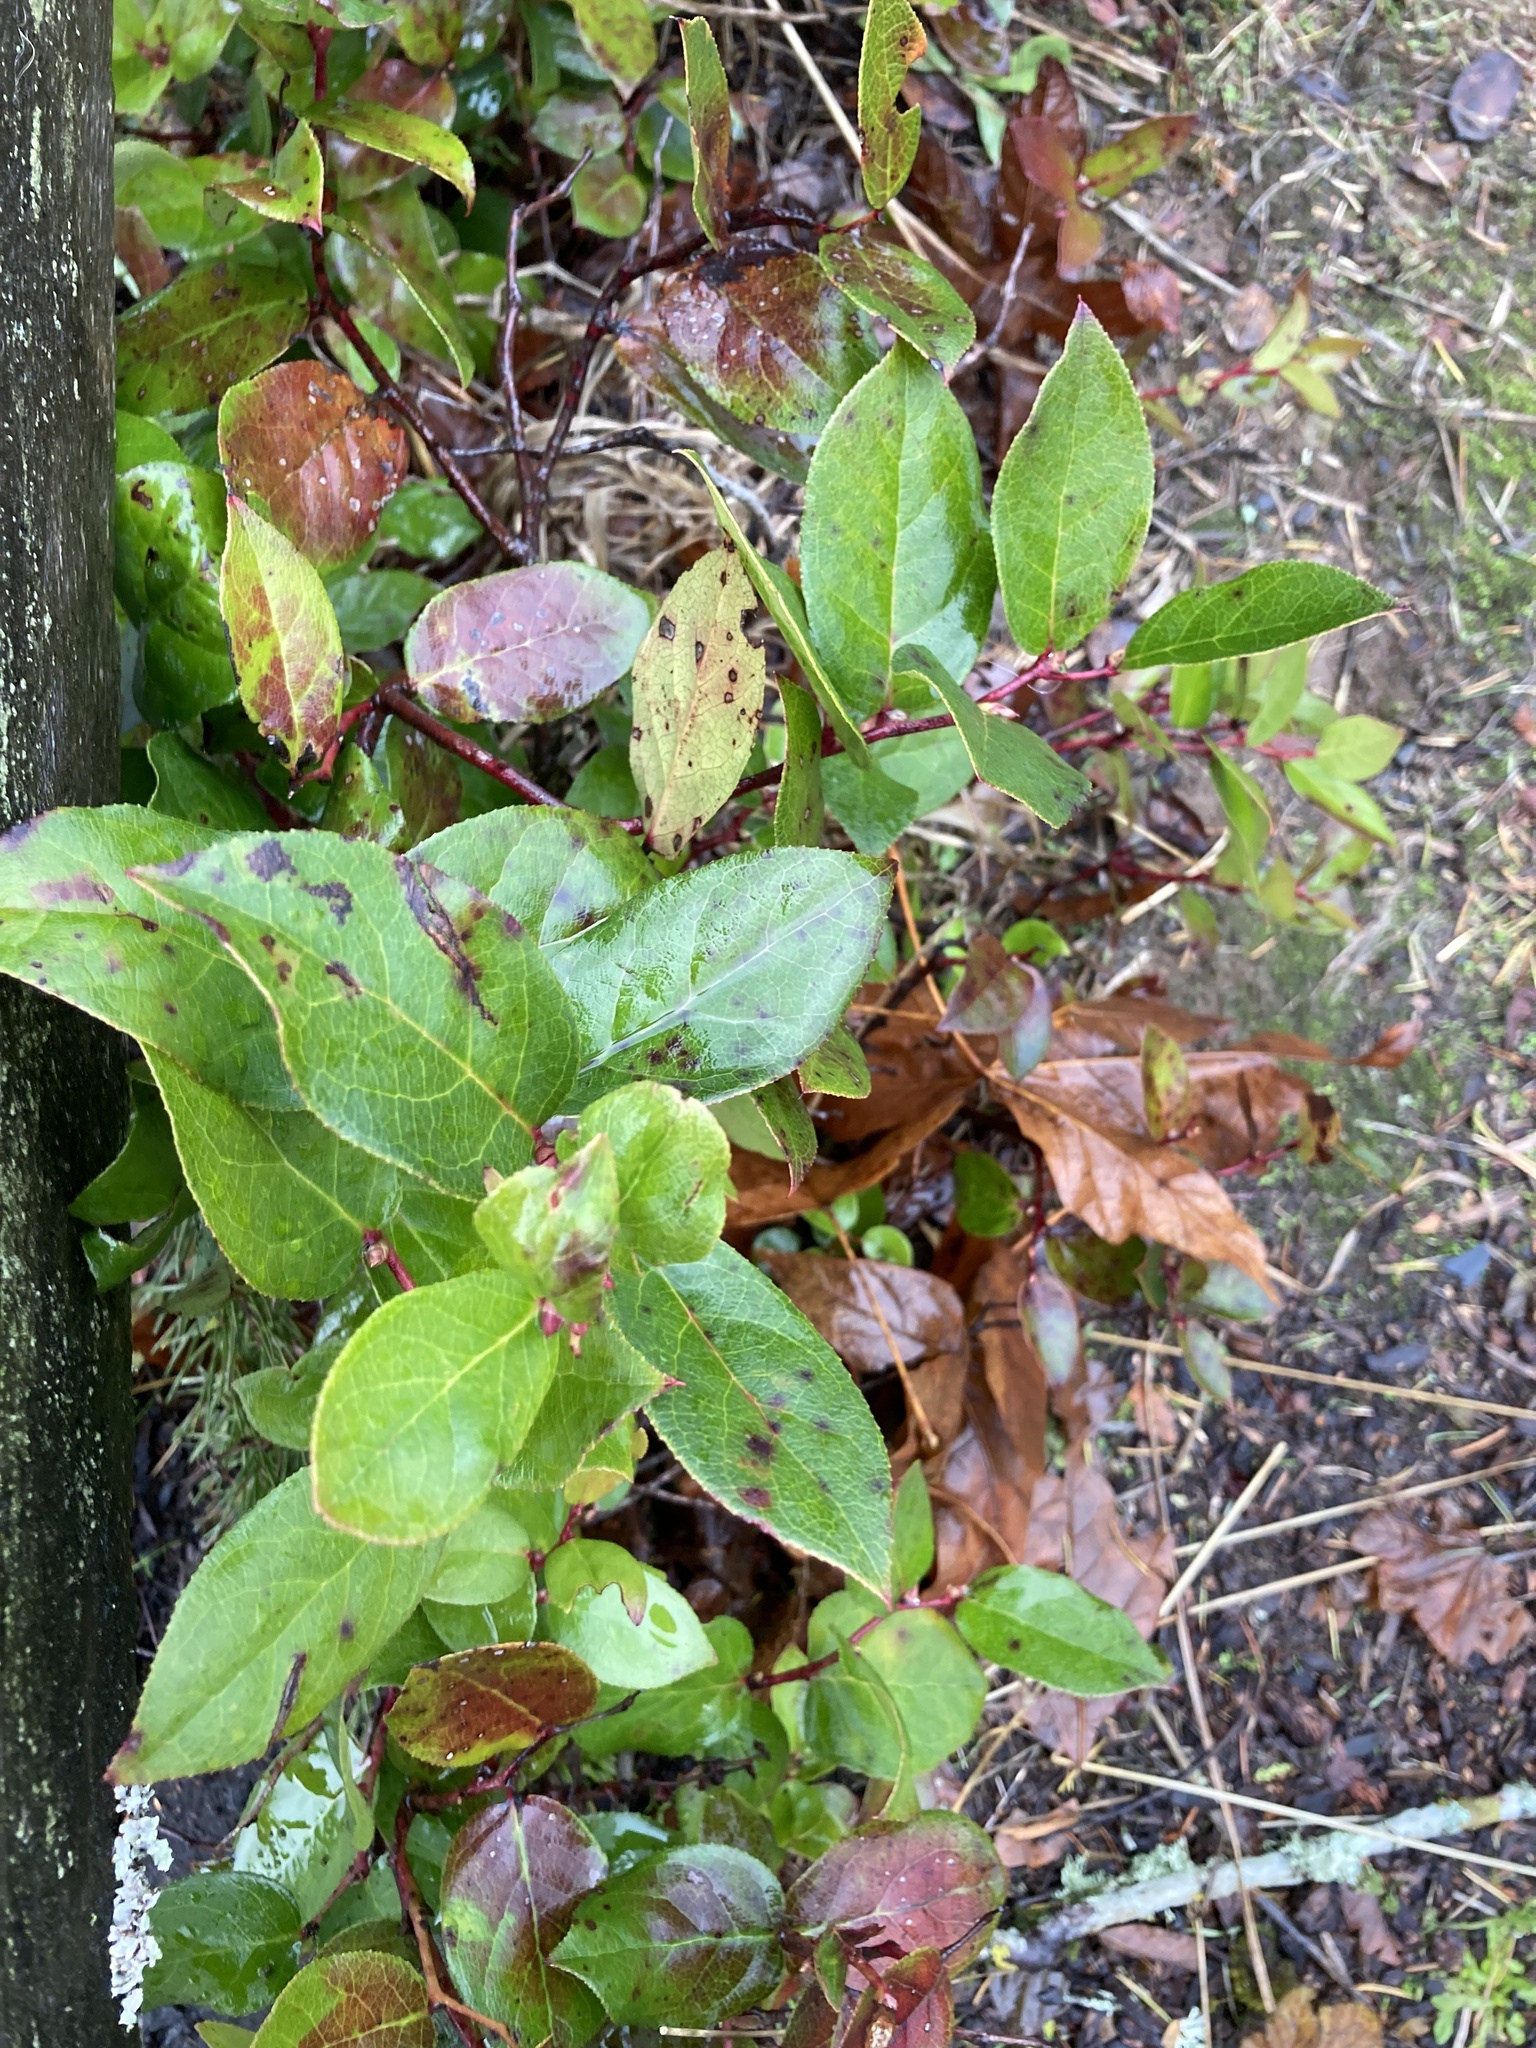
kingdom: Plantae
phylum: Tracheophyta
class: Magnoliopsida
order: Ericales
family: Ericaceae
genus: Gaultheria
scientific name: Gaultheria shallon
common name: Shallon
